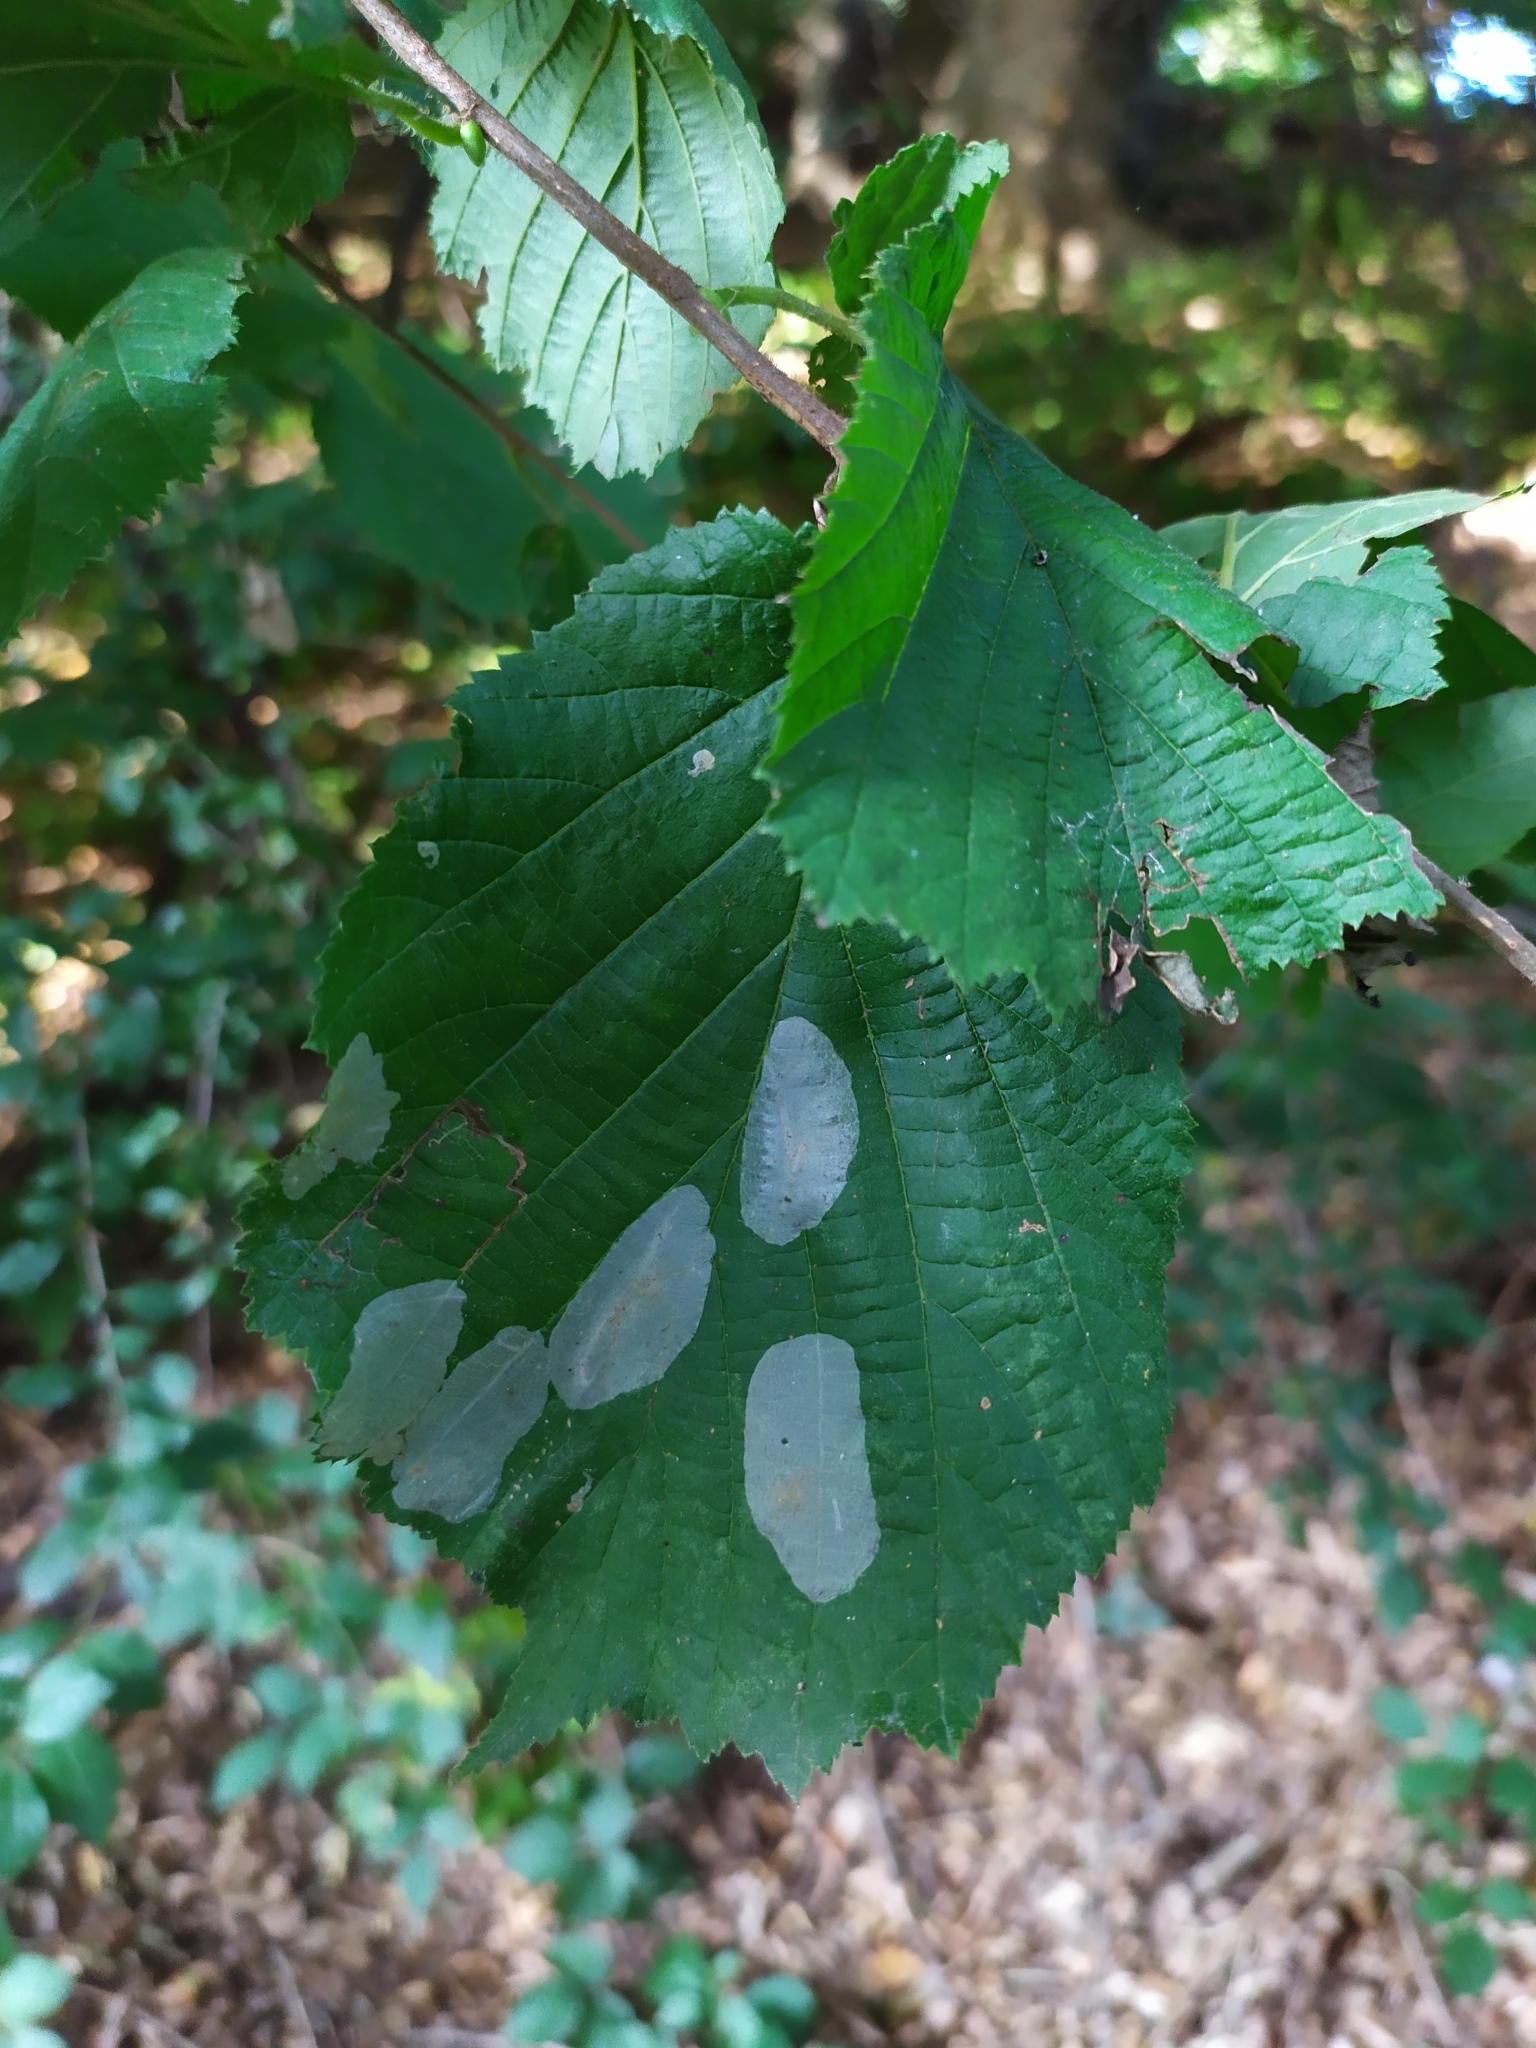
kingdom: Animalia
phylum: Arthropoda
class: Insecta
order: Lepidoptera
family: Gracillariidae
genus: Phyllonorycter
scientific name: Phyllonorycter coryli
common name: Nut-leaf blister moth
